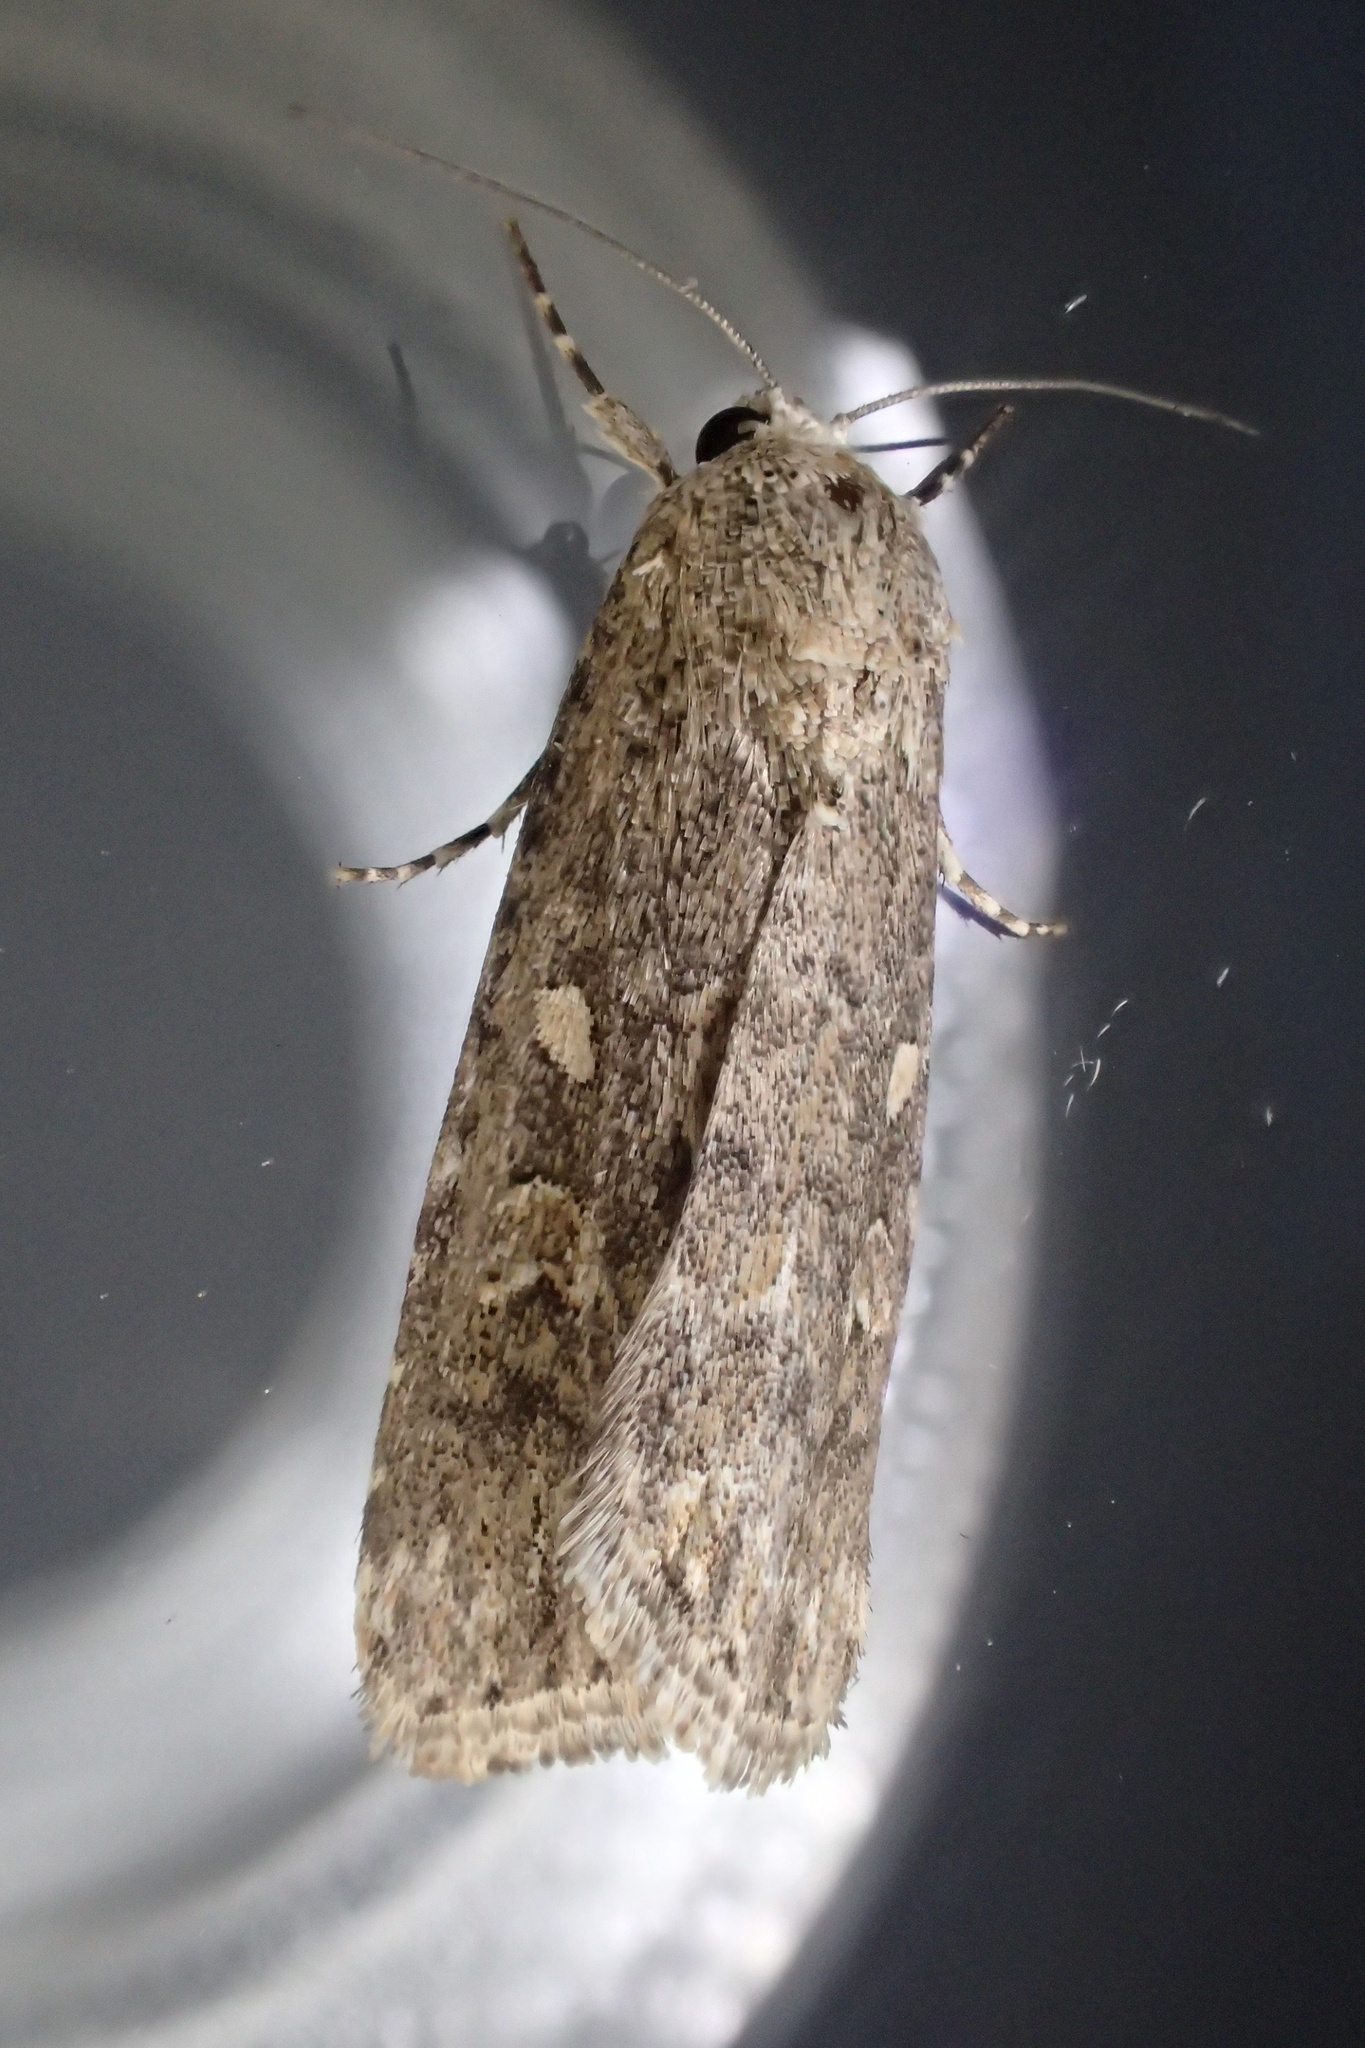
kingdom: Animalia
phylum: Arthropoda
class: Insecta
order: Lepidoptera
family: Noctuidae
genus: Spodoptera
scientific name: Spodoptera exigua
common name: Beet armyworm
